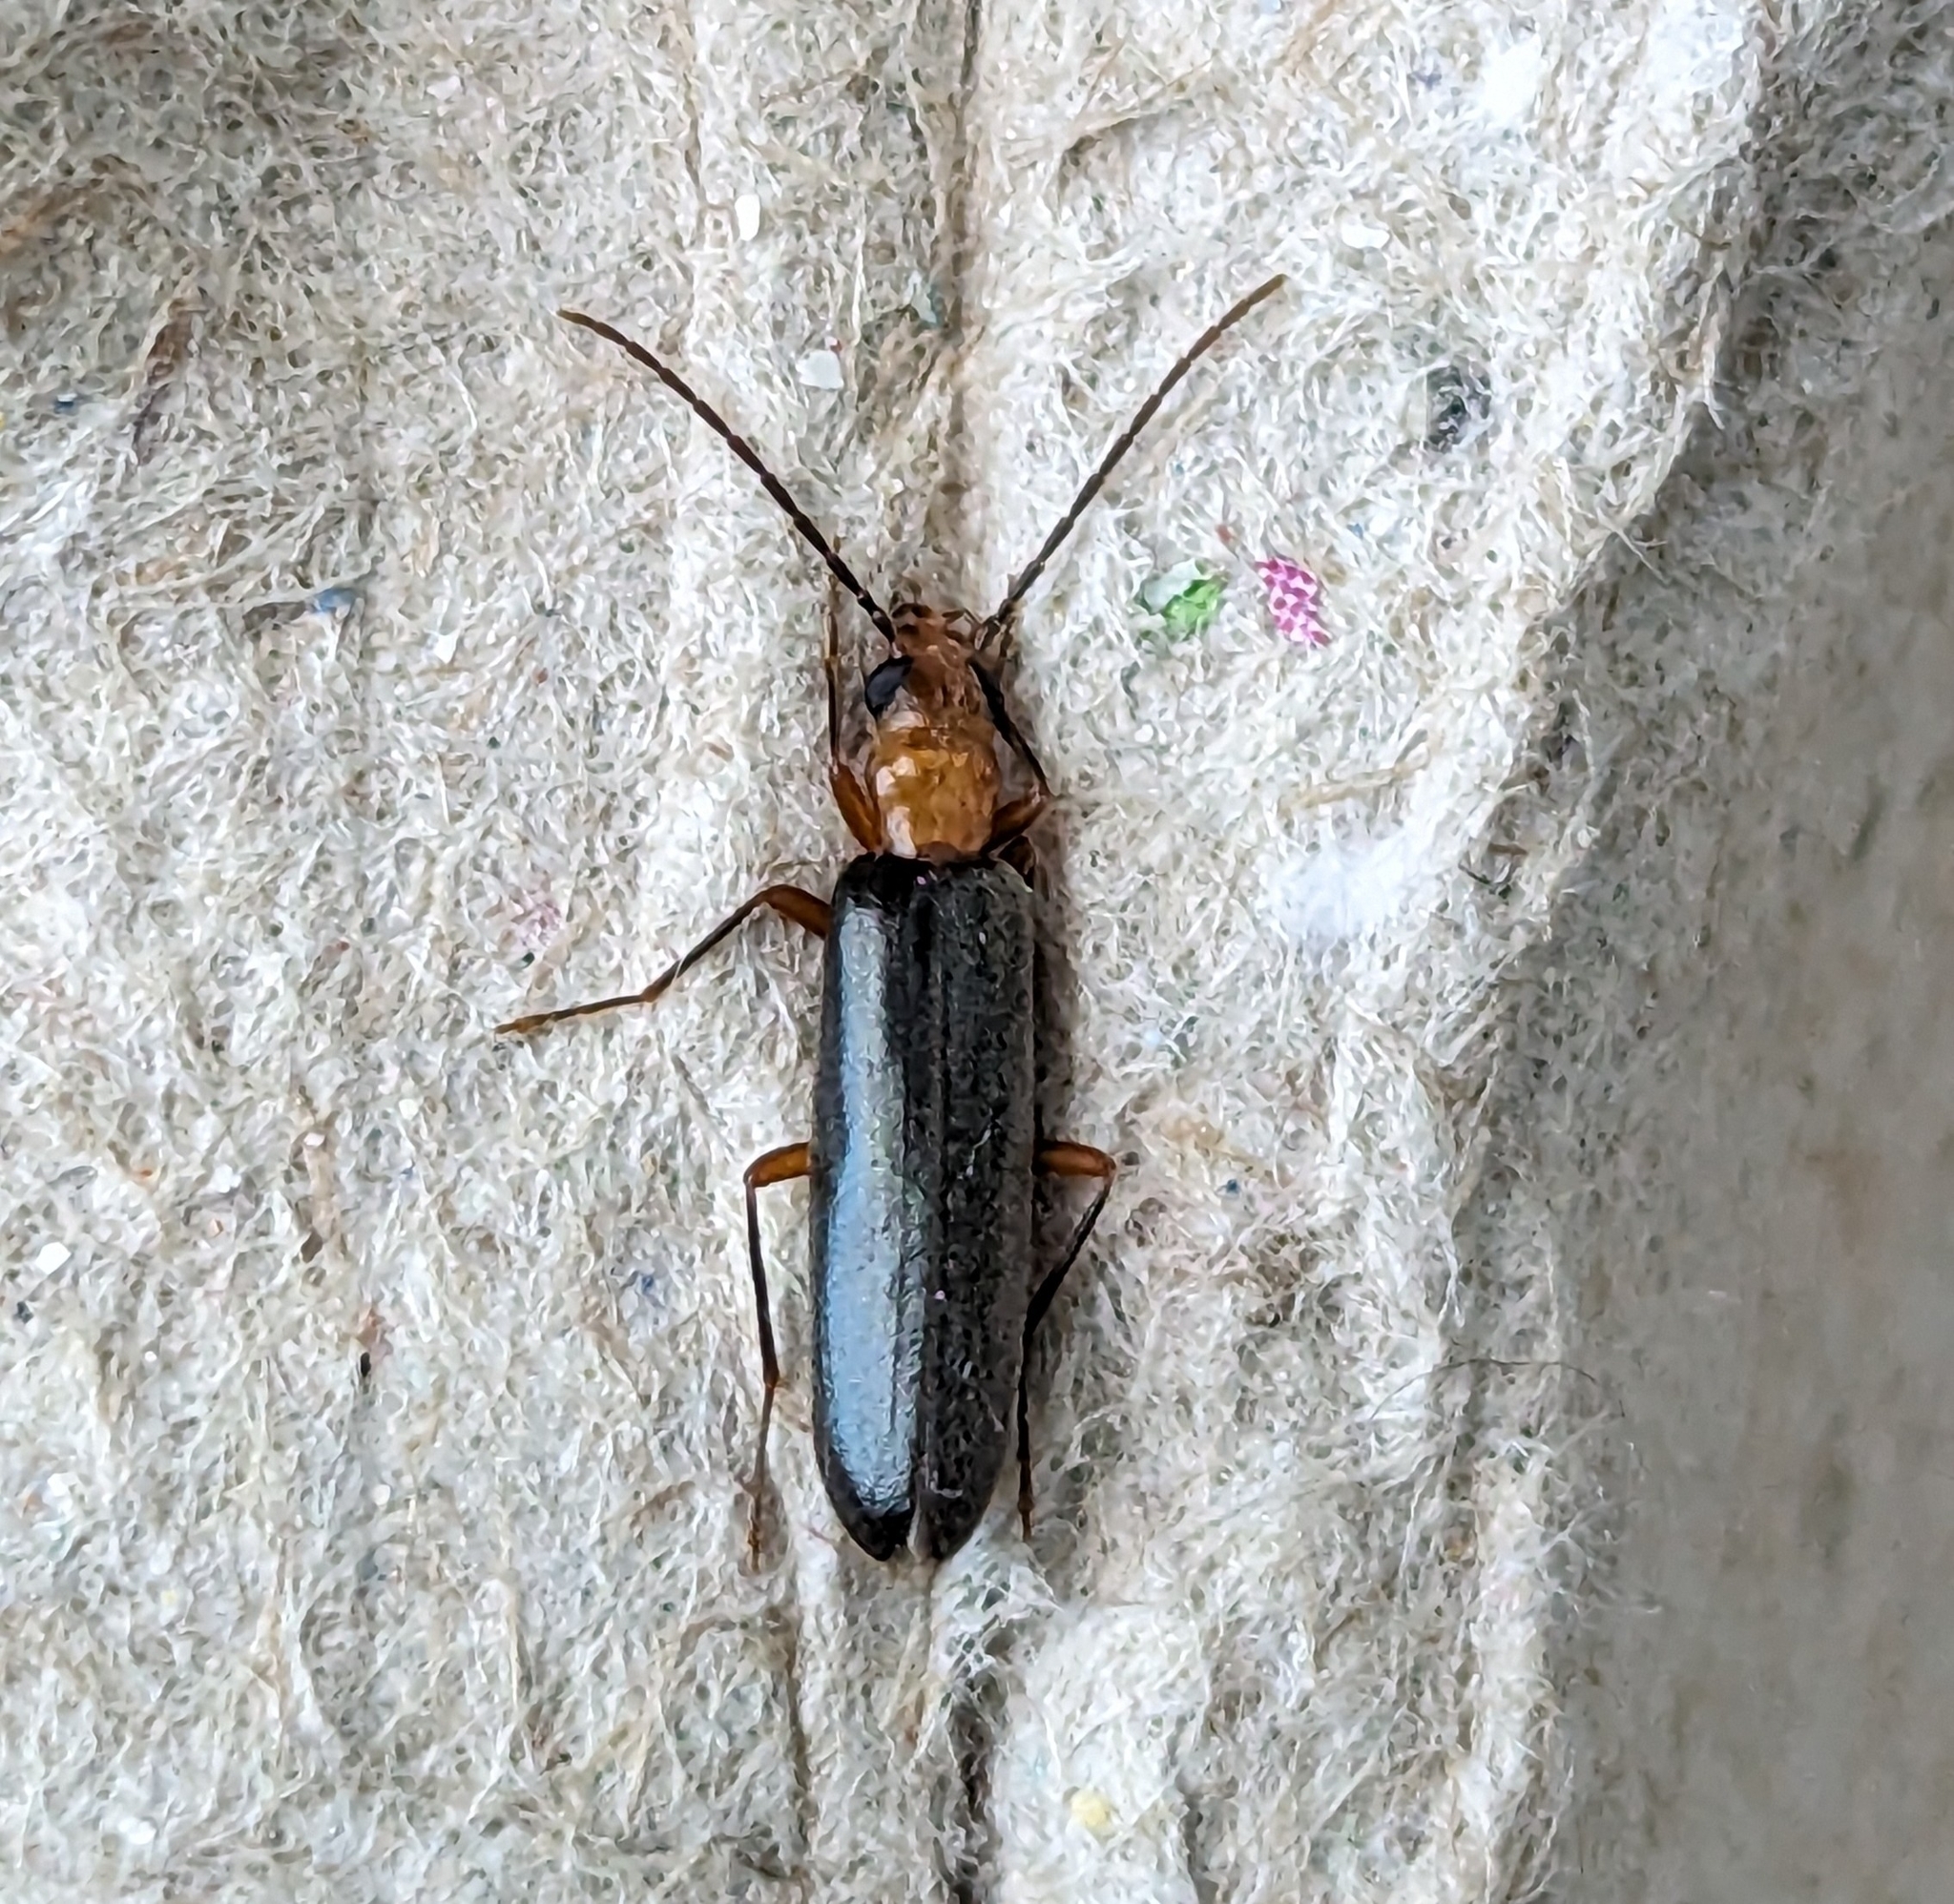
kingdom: Animalia
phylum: Arthropoda
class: Insecta
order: Coleoptera
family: Oedemeridae
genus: Xanthochroina
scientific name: Xanthochroina bicolor
